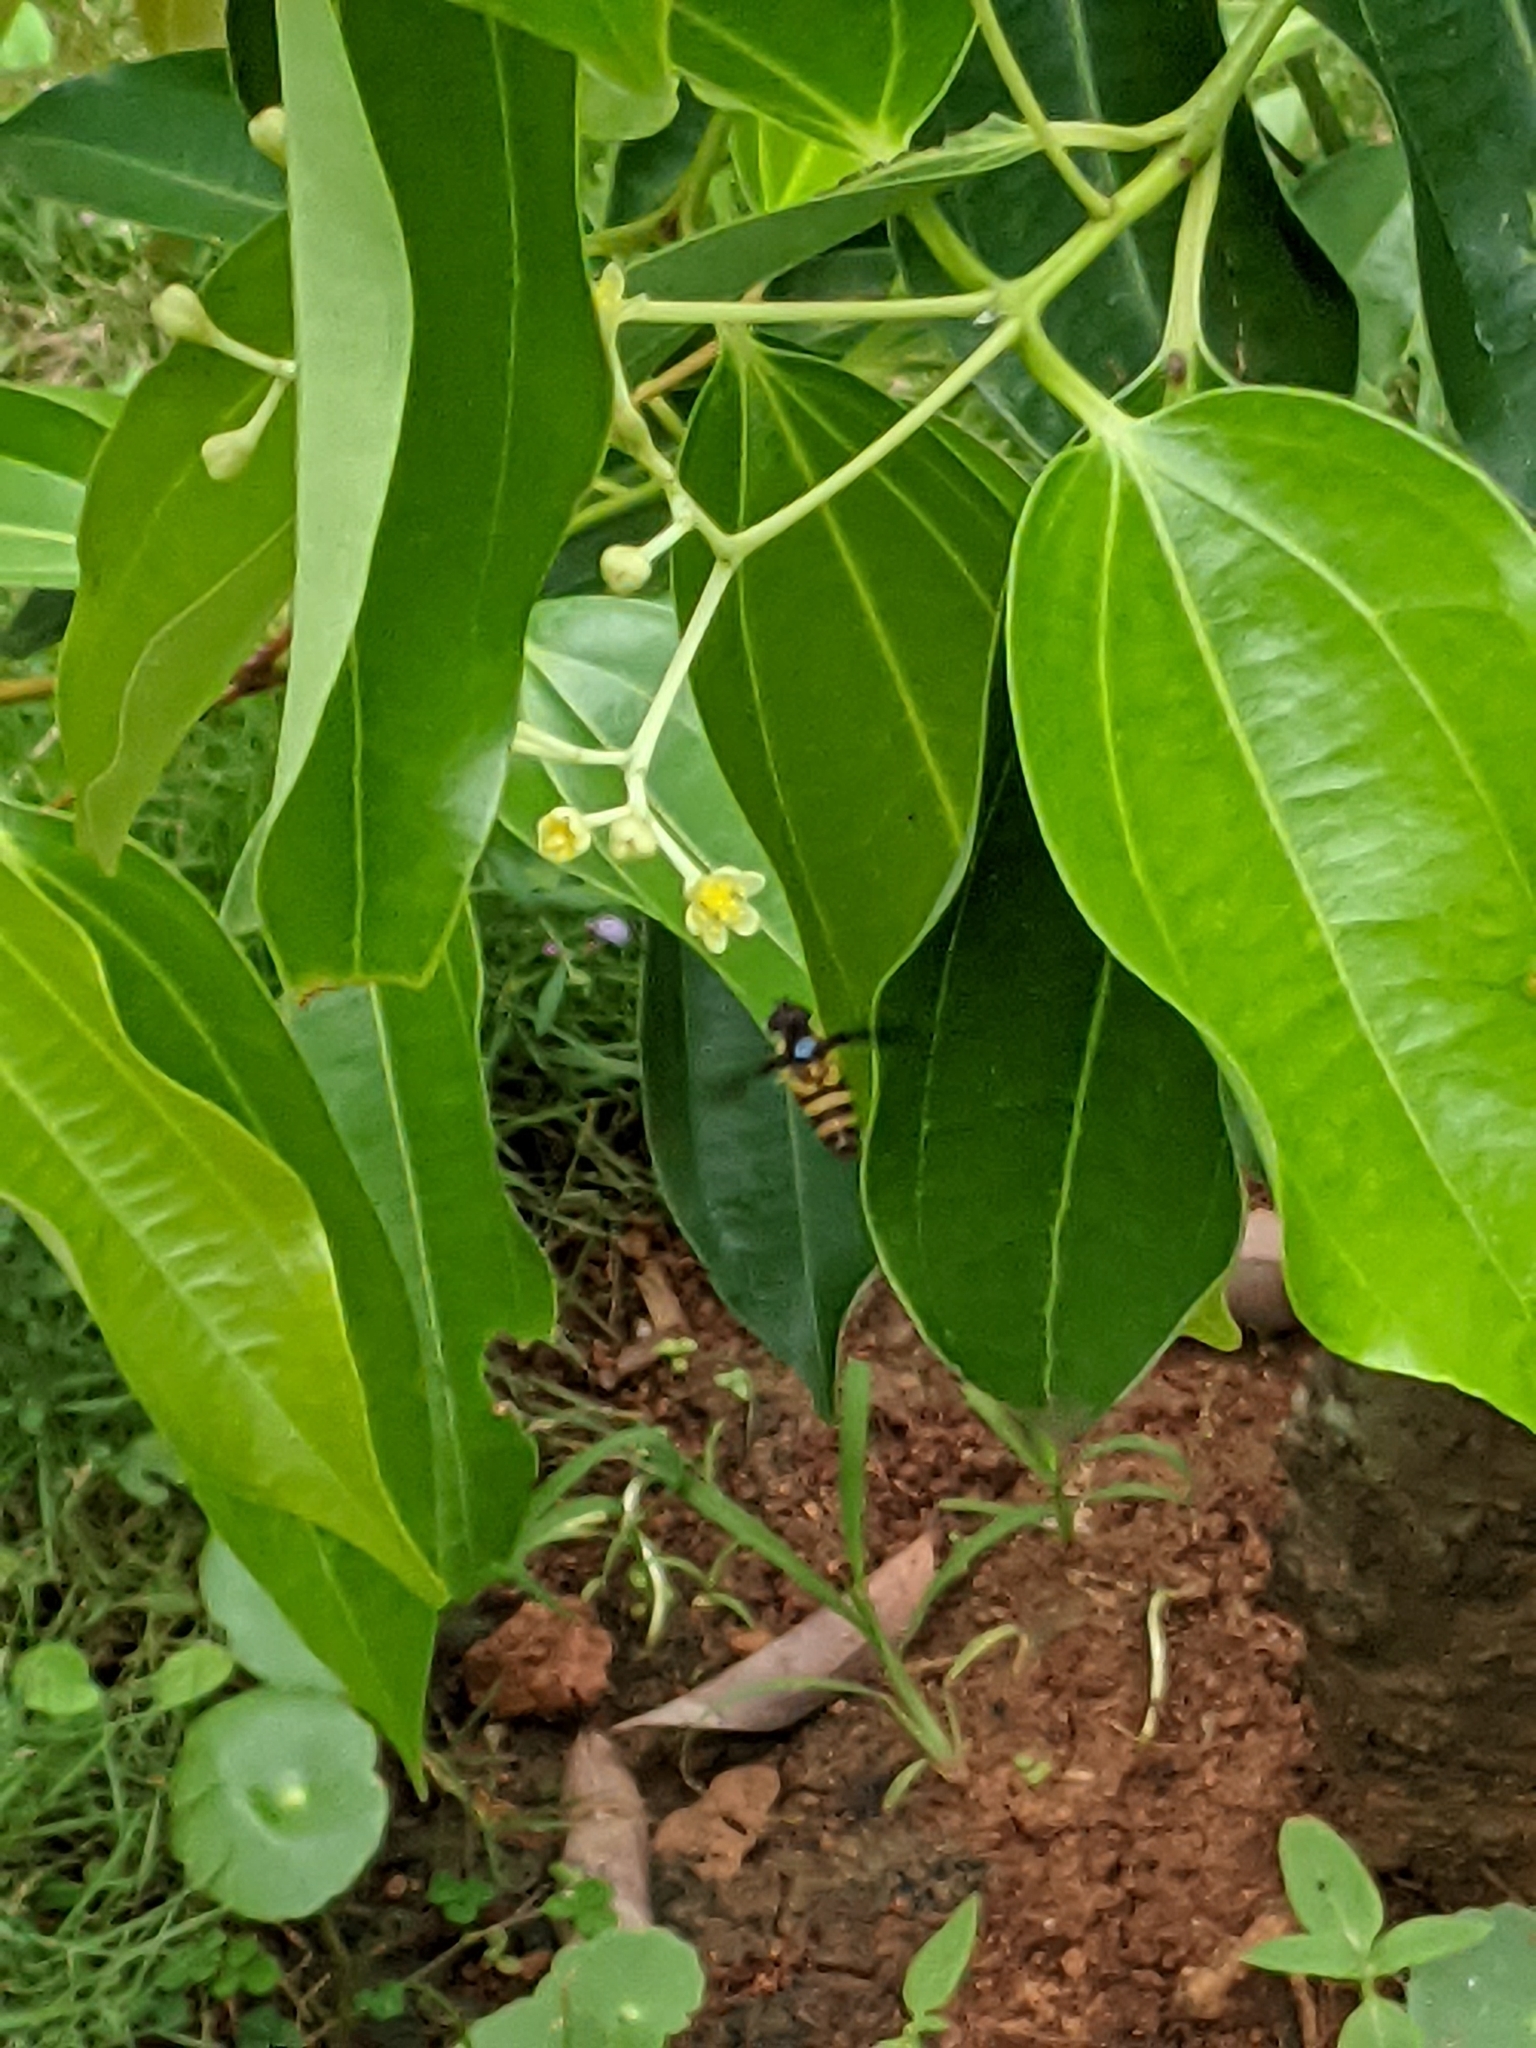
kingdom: Animalia
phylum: Arthropoda
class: Insecta
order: Diptera
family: Syrphidae
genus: Dideopsis
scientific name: Dideopsis aegrota
